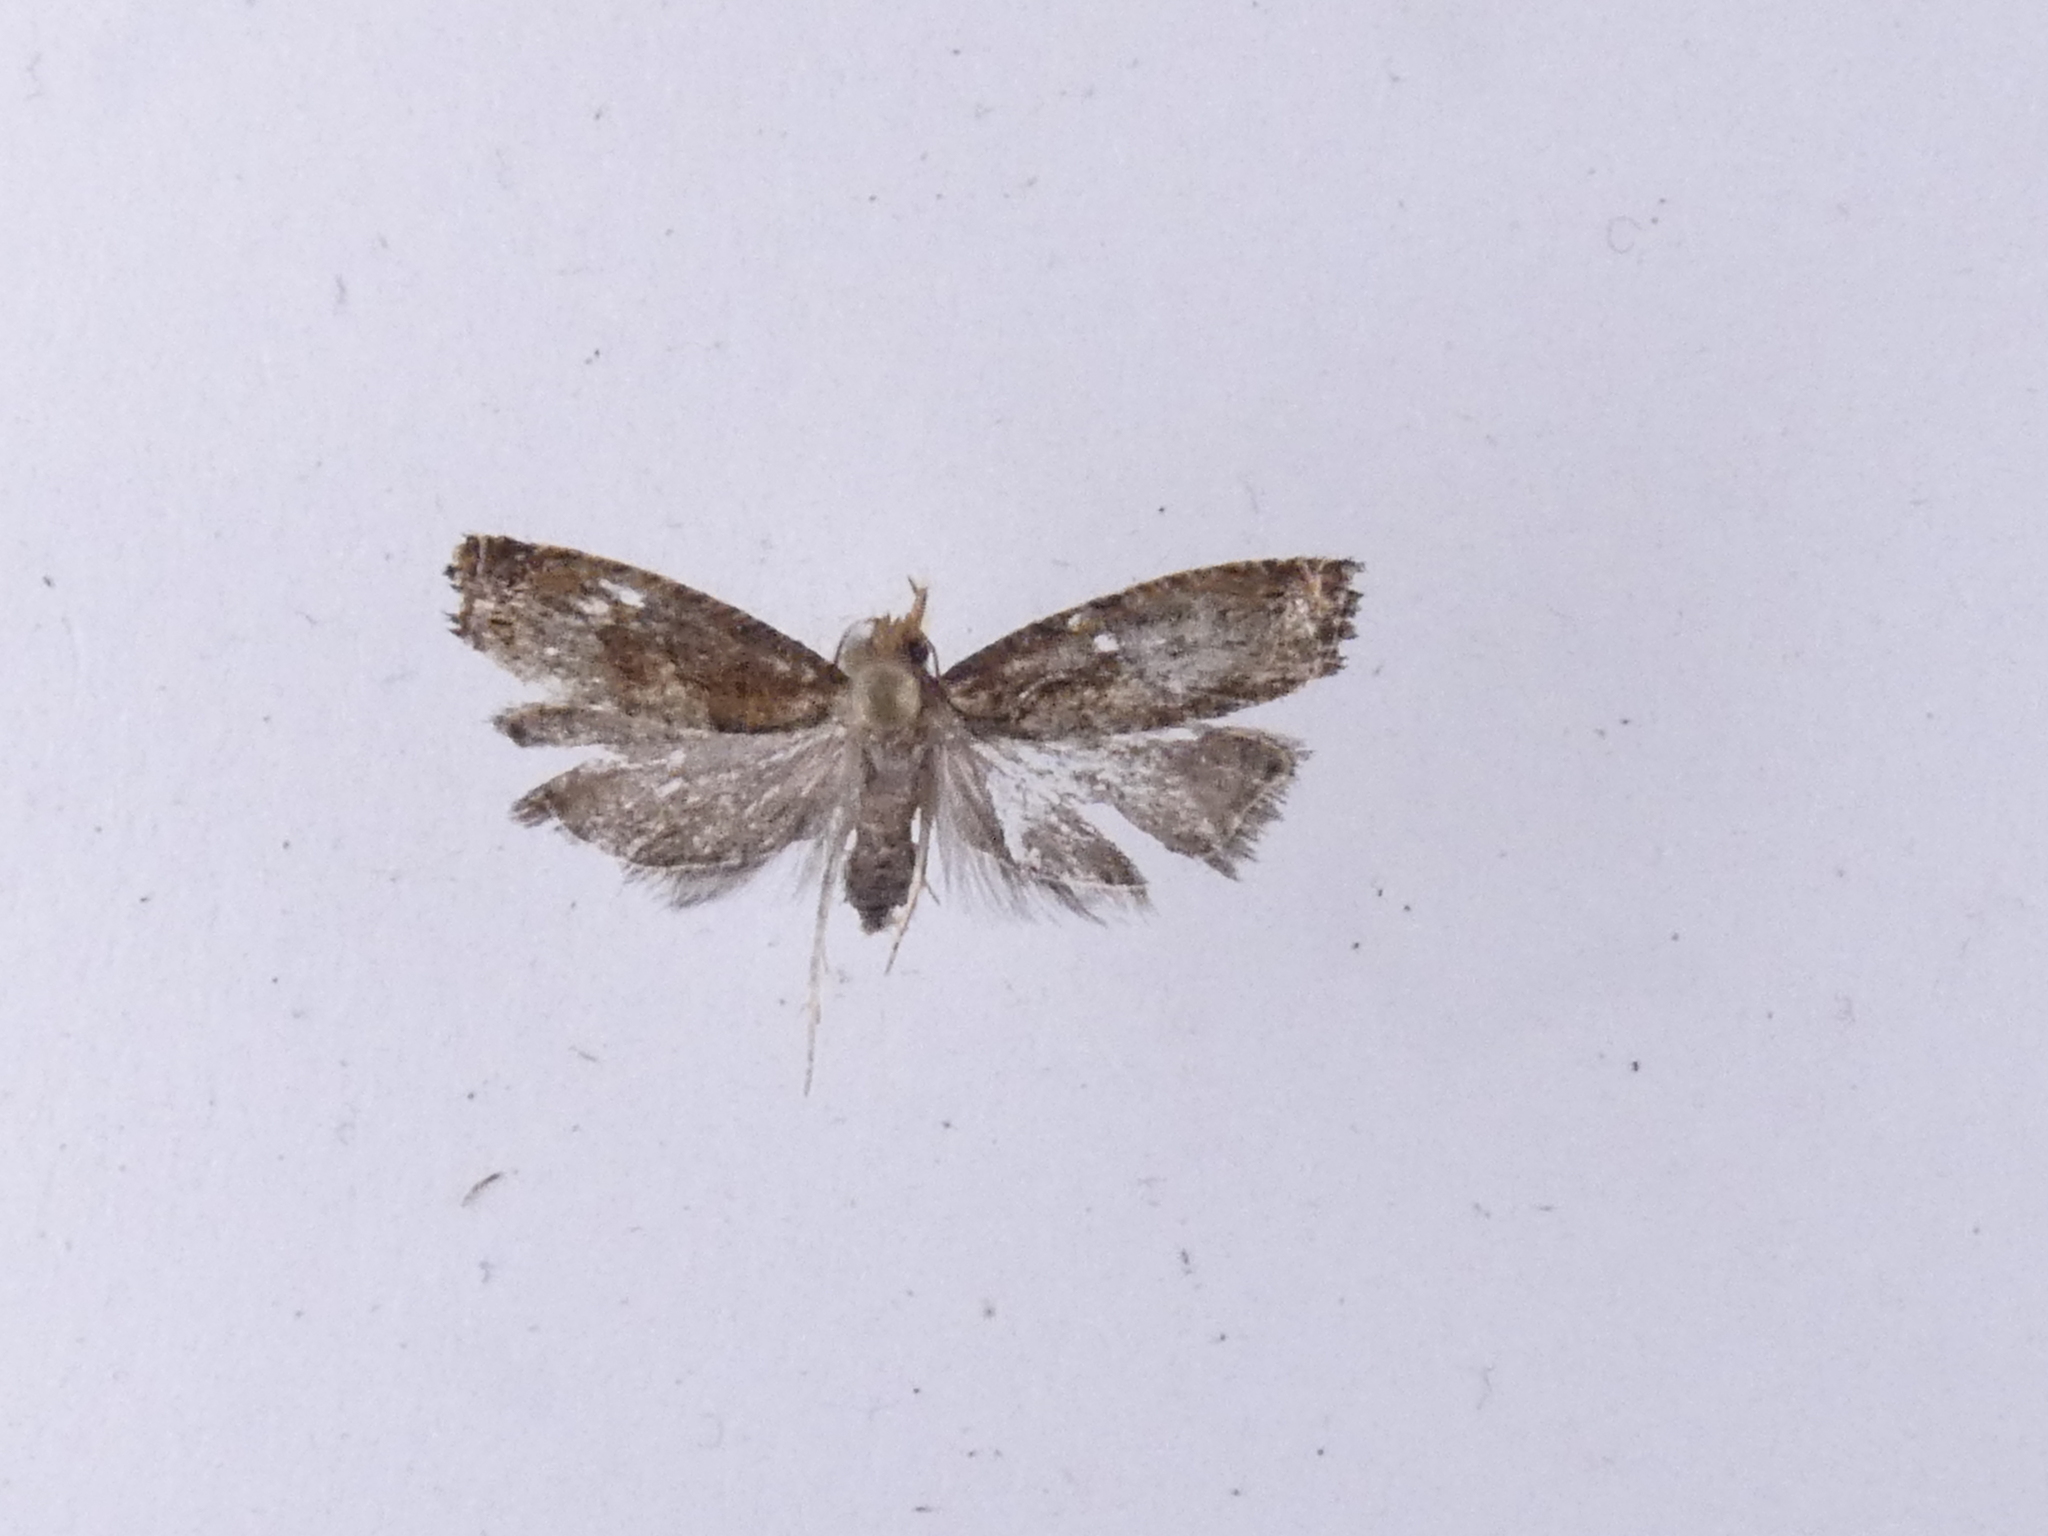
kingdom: Animalia
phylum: Arthropoda
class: Insecta
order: Lepidoptera
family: Tortricidae
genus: Cydia
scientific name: Cydia succedana
